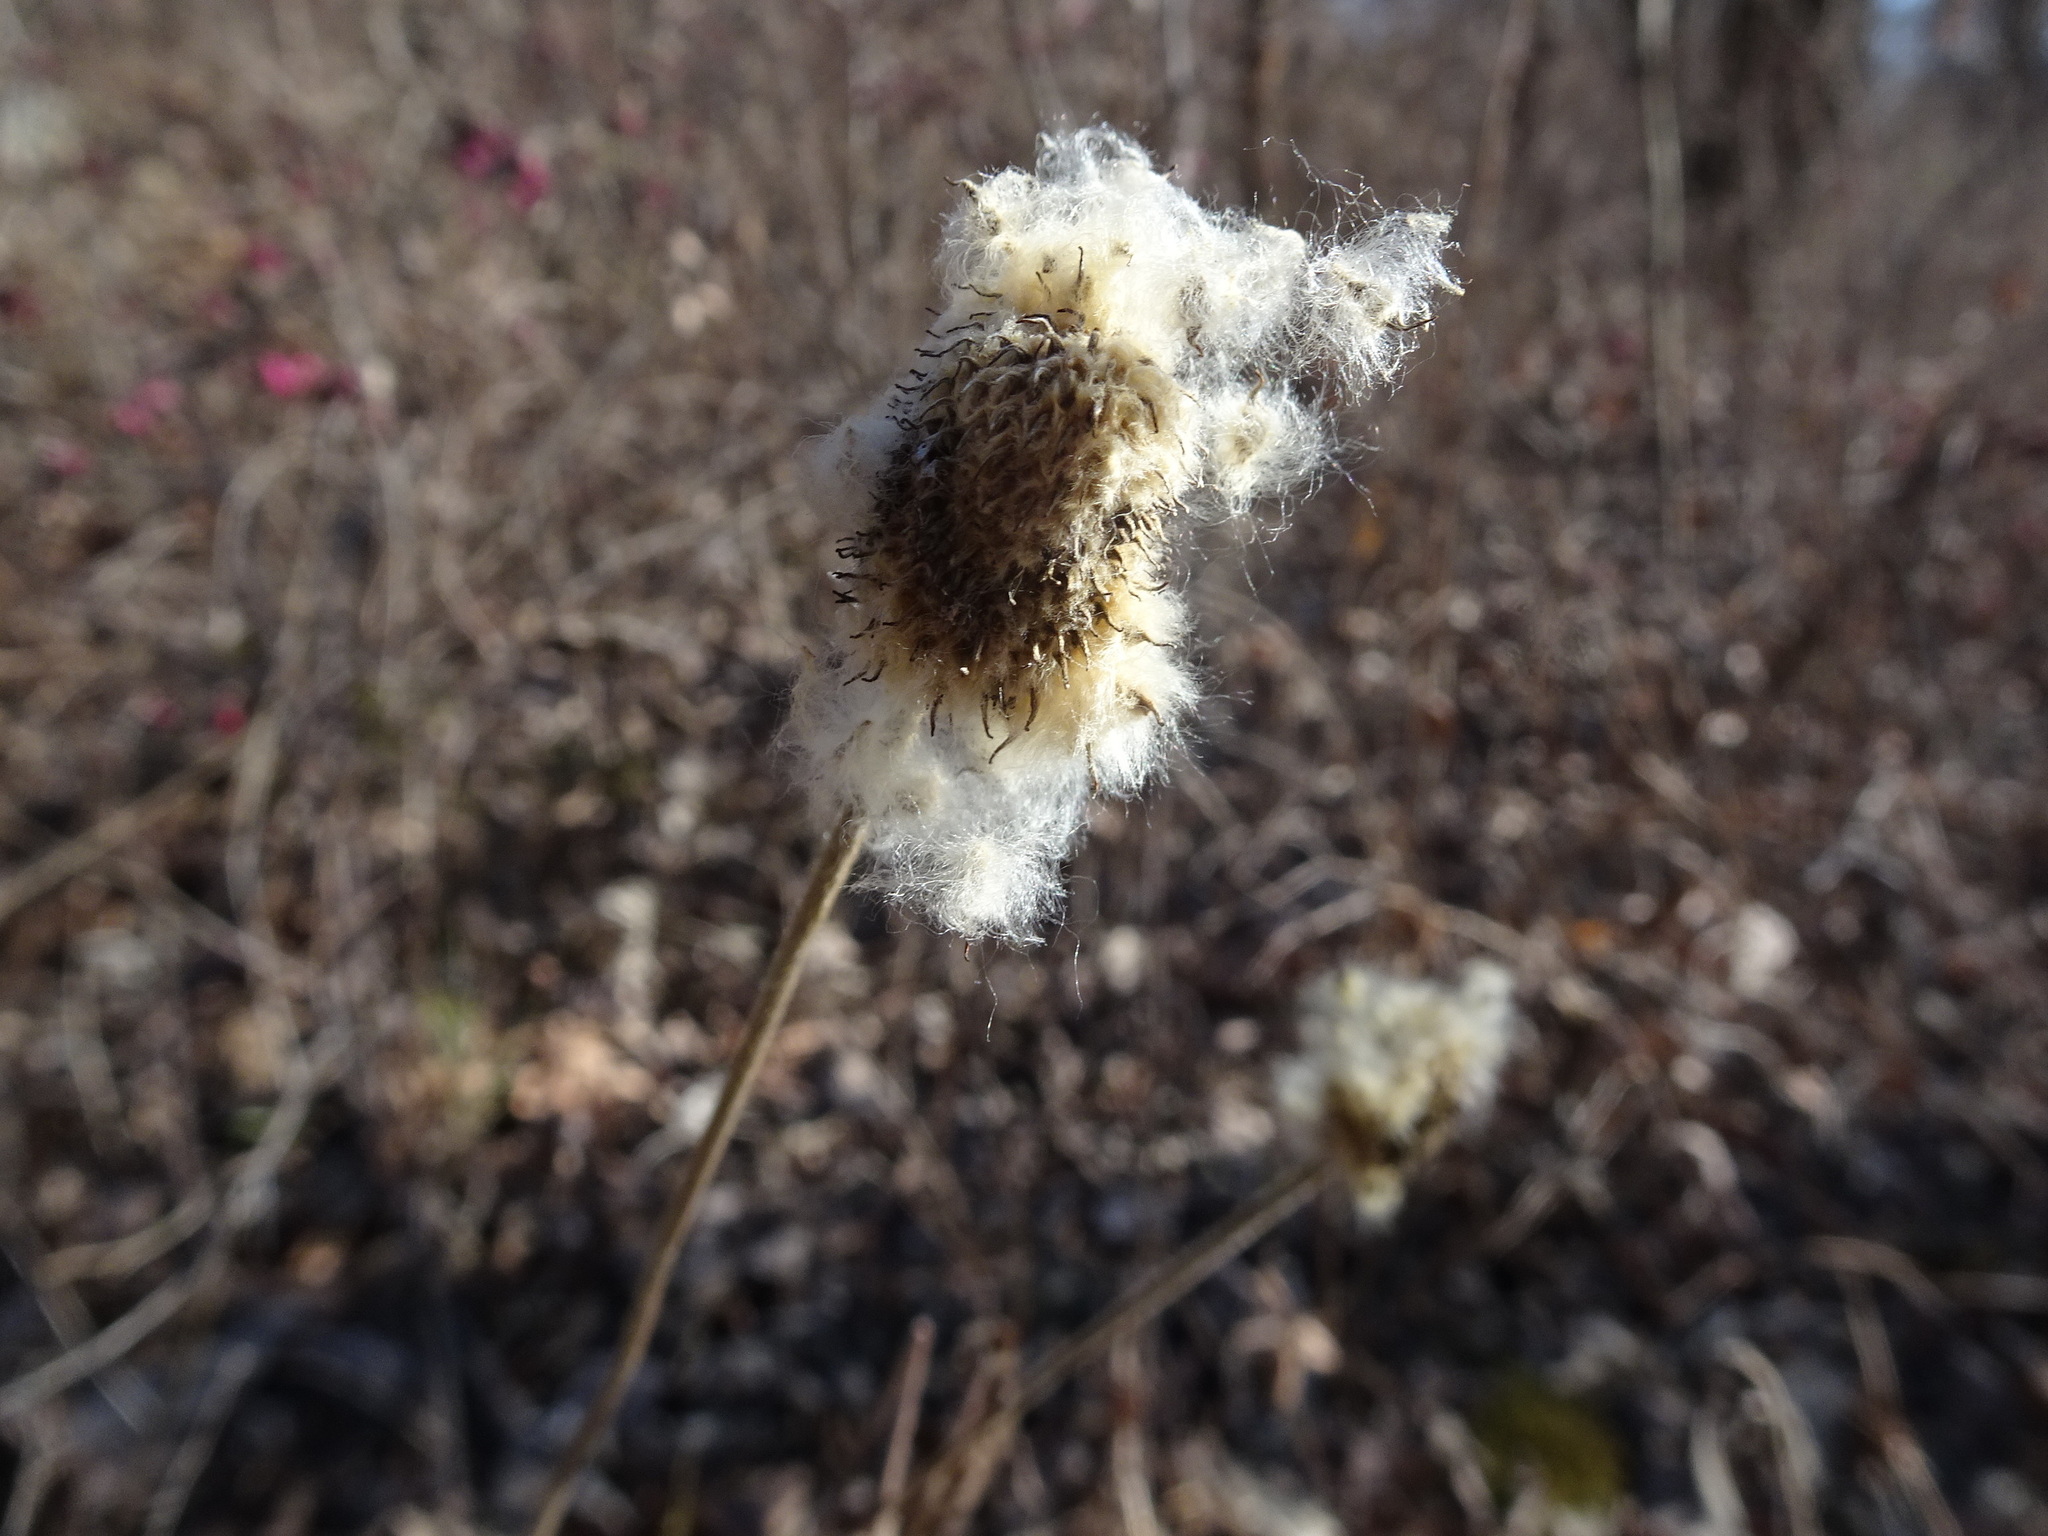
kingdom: Plantae
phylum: Tracheophyta
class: Magnoliopsida
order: Ranunculales
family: Ranunculaceae
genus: Anemone
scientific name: Anemone virginiana
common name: Tall anemone
